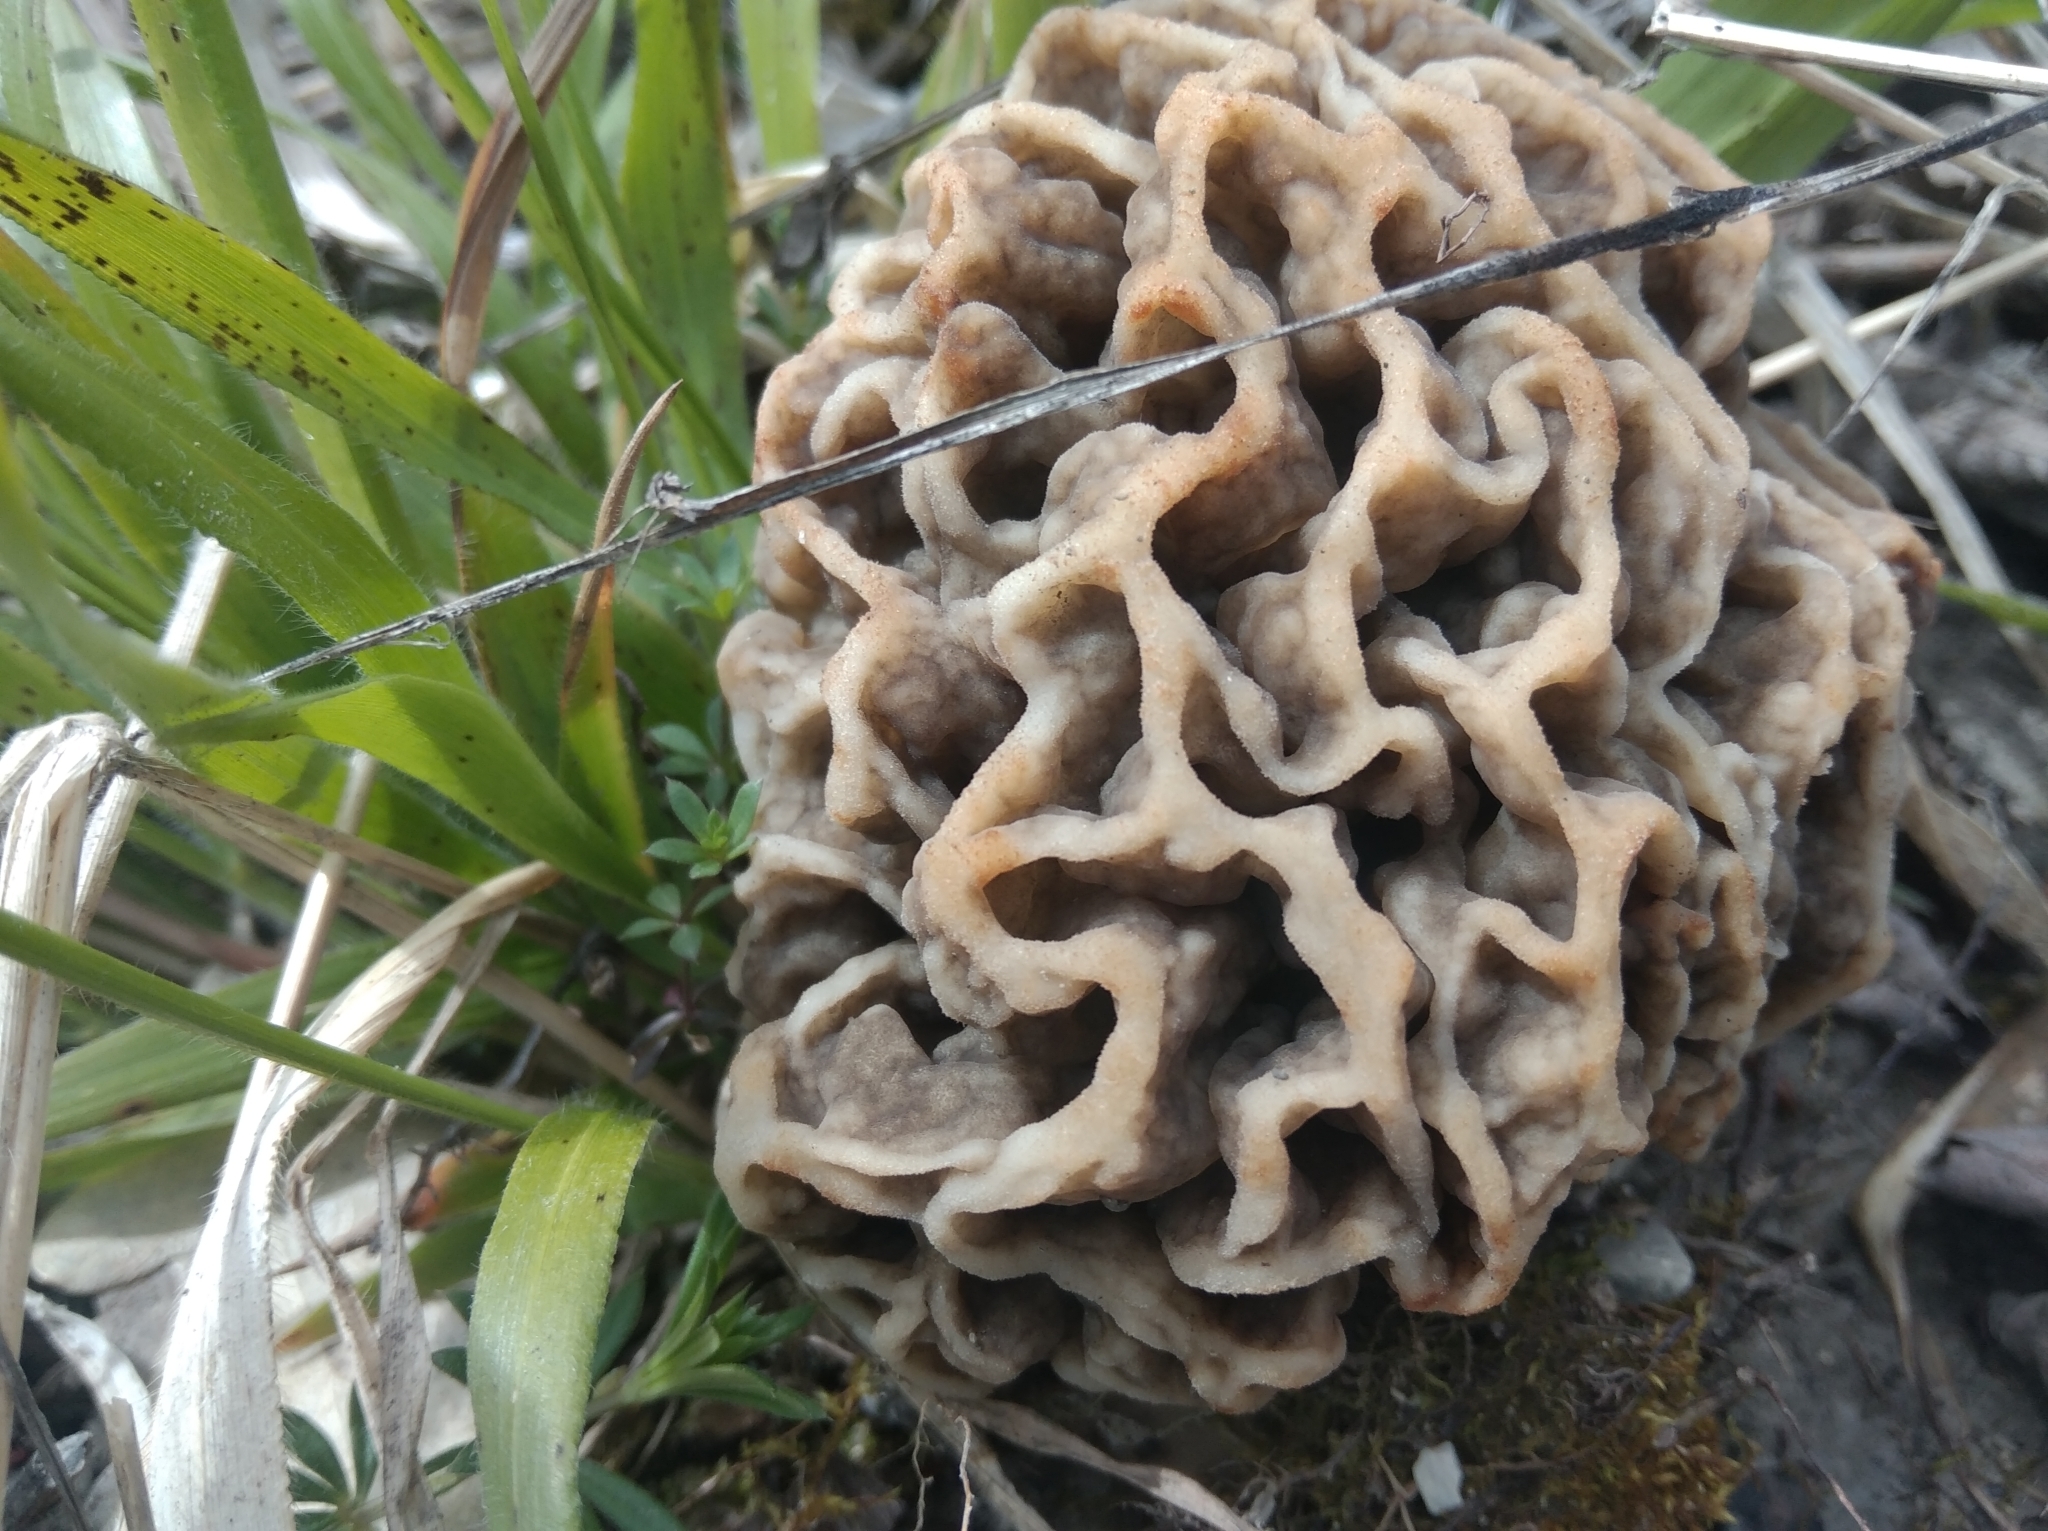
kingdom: Fungi
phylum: Ascomycota
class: Pezizomycetes
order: Pezizales
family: Morchellaceae
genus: Morchella
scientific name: Morchella esculenta
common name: Morel
